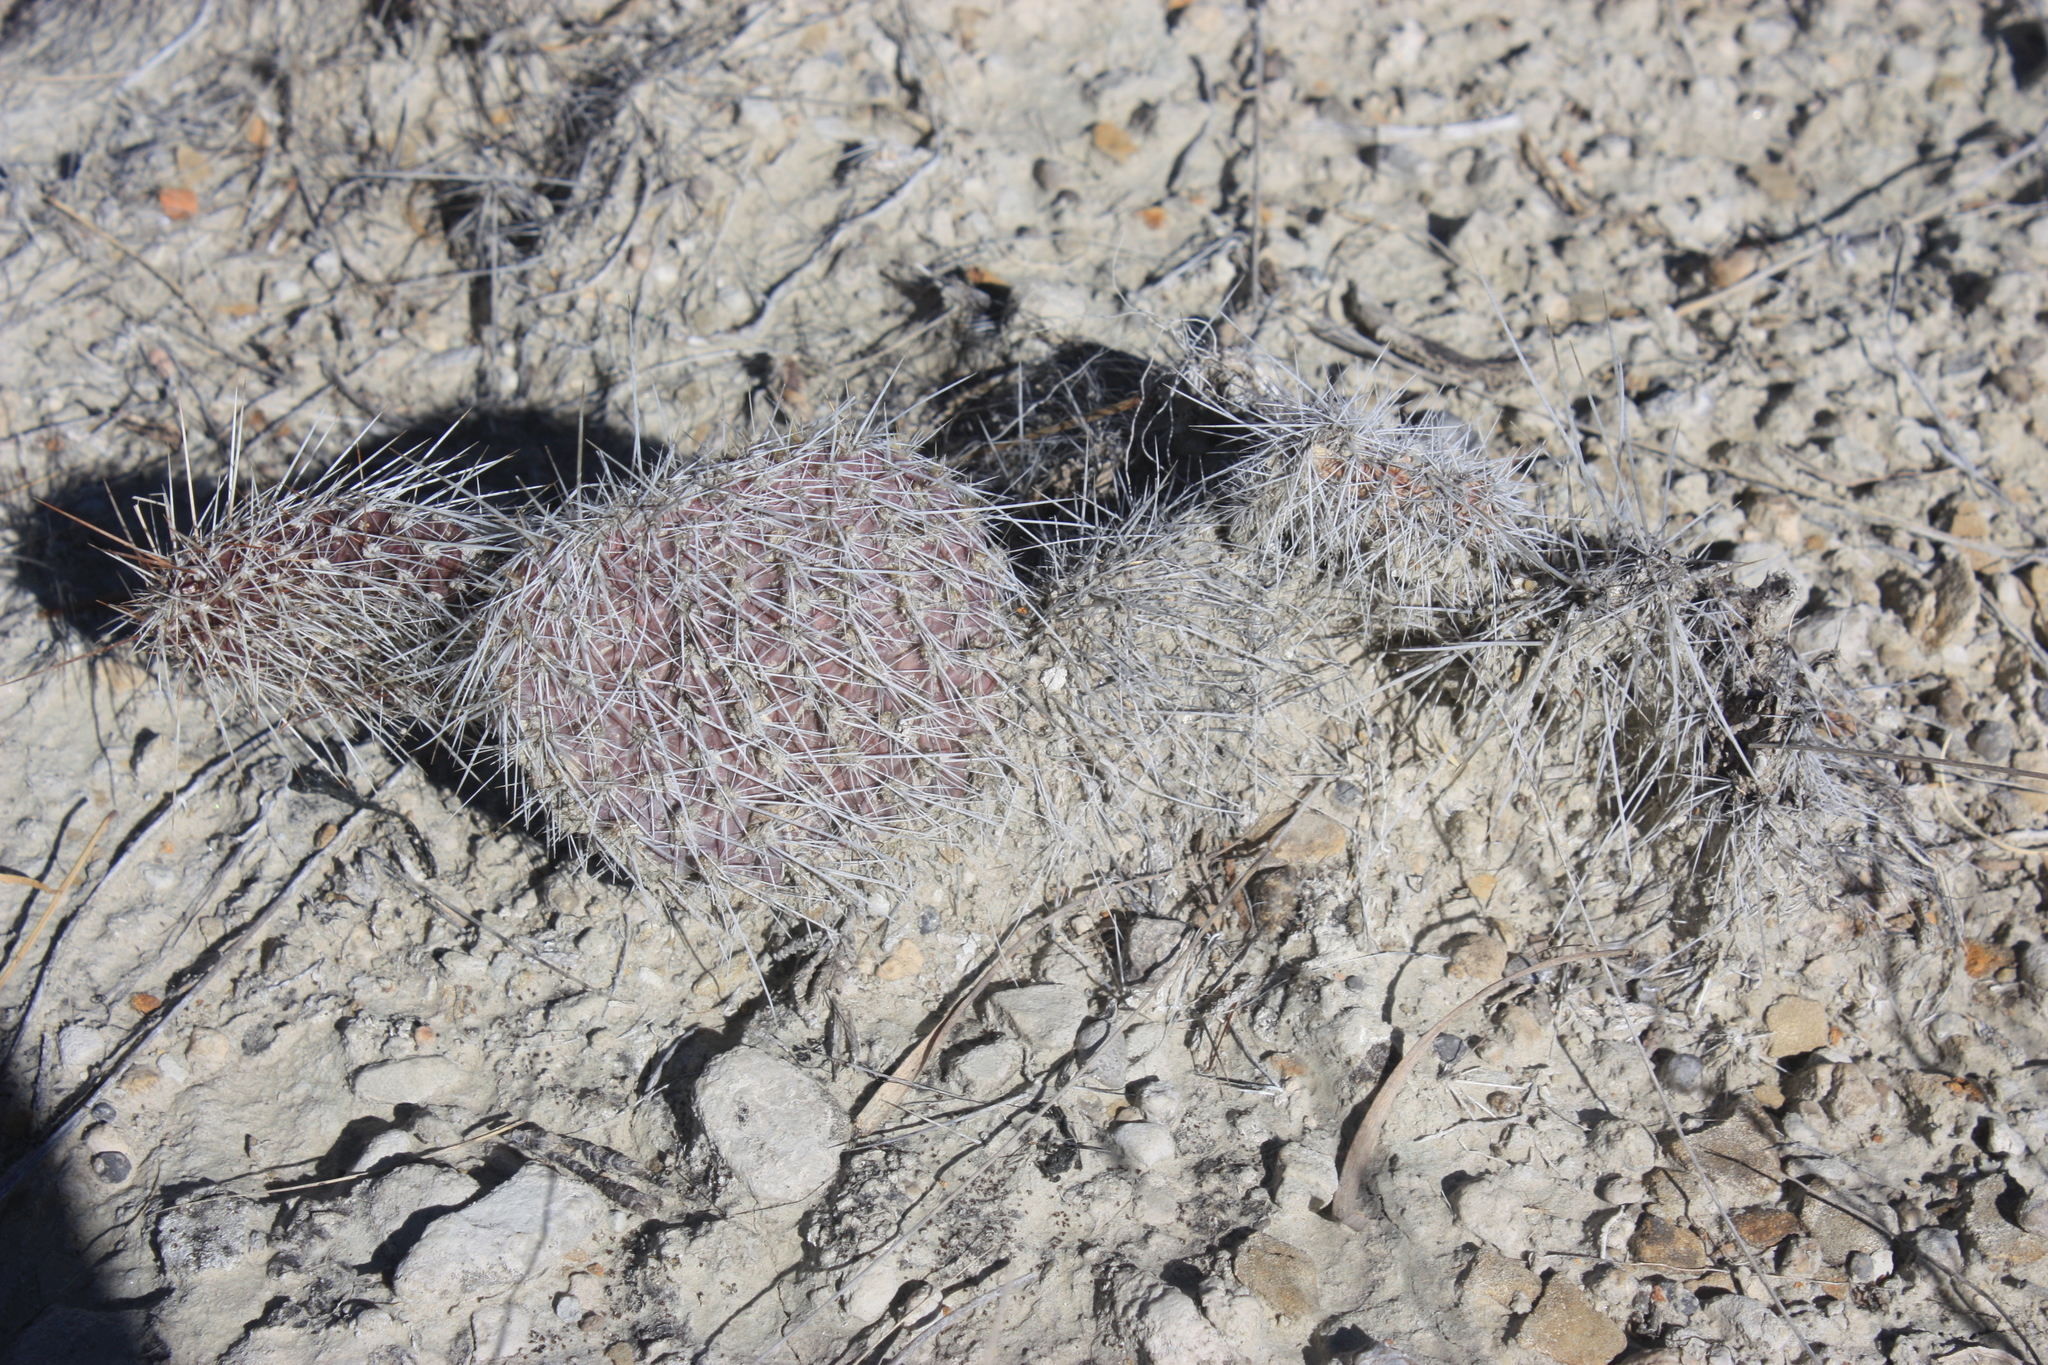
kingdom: Plantae
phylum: Tracheophyta
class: Magnoliopsida
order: Caryophyllales
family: Cactaceae
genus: Opuntia
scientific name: Opuntia polyacantha
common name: Plains prickly-pear
